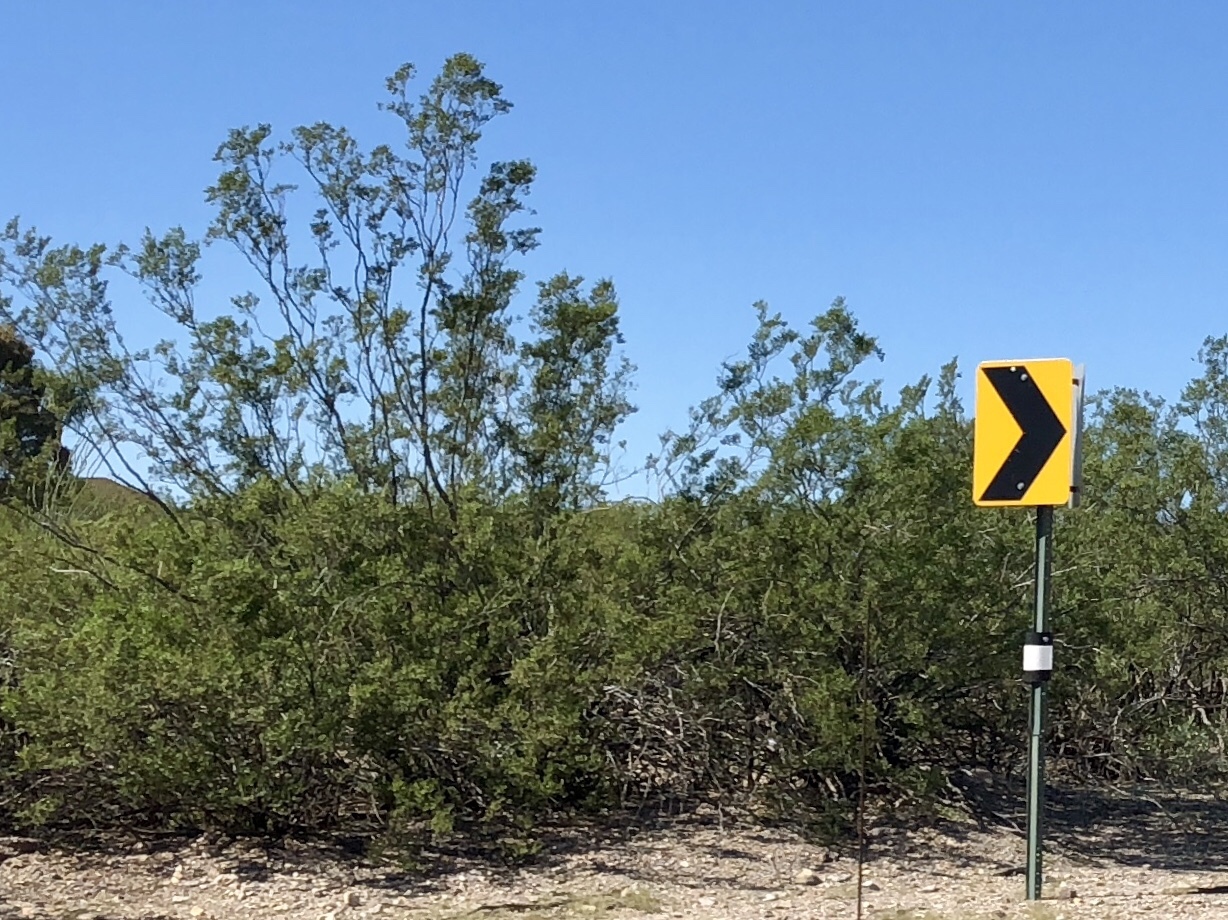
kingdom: Plantae
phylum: Tracheophyta
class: Magnoliopsida
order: Zygophyllales
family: Zygophyllaceae
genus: Larrea
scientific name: Larrea tridentata
